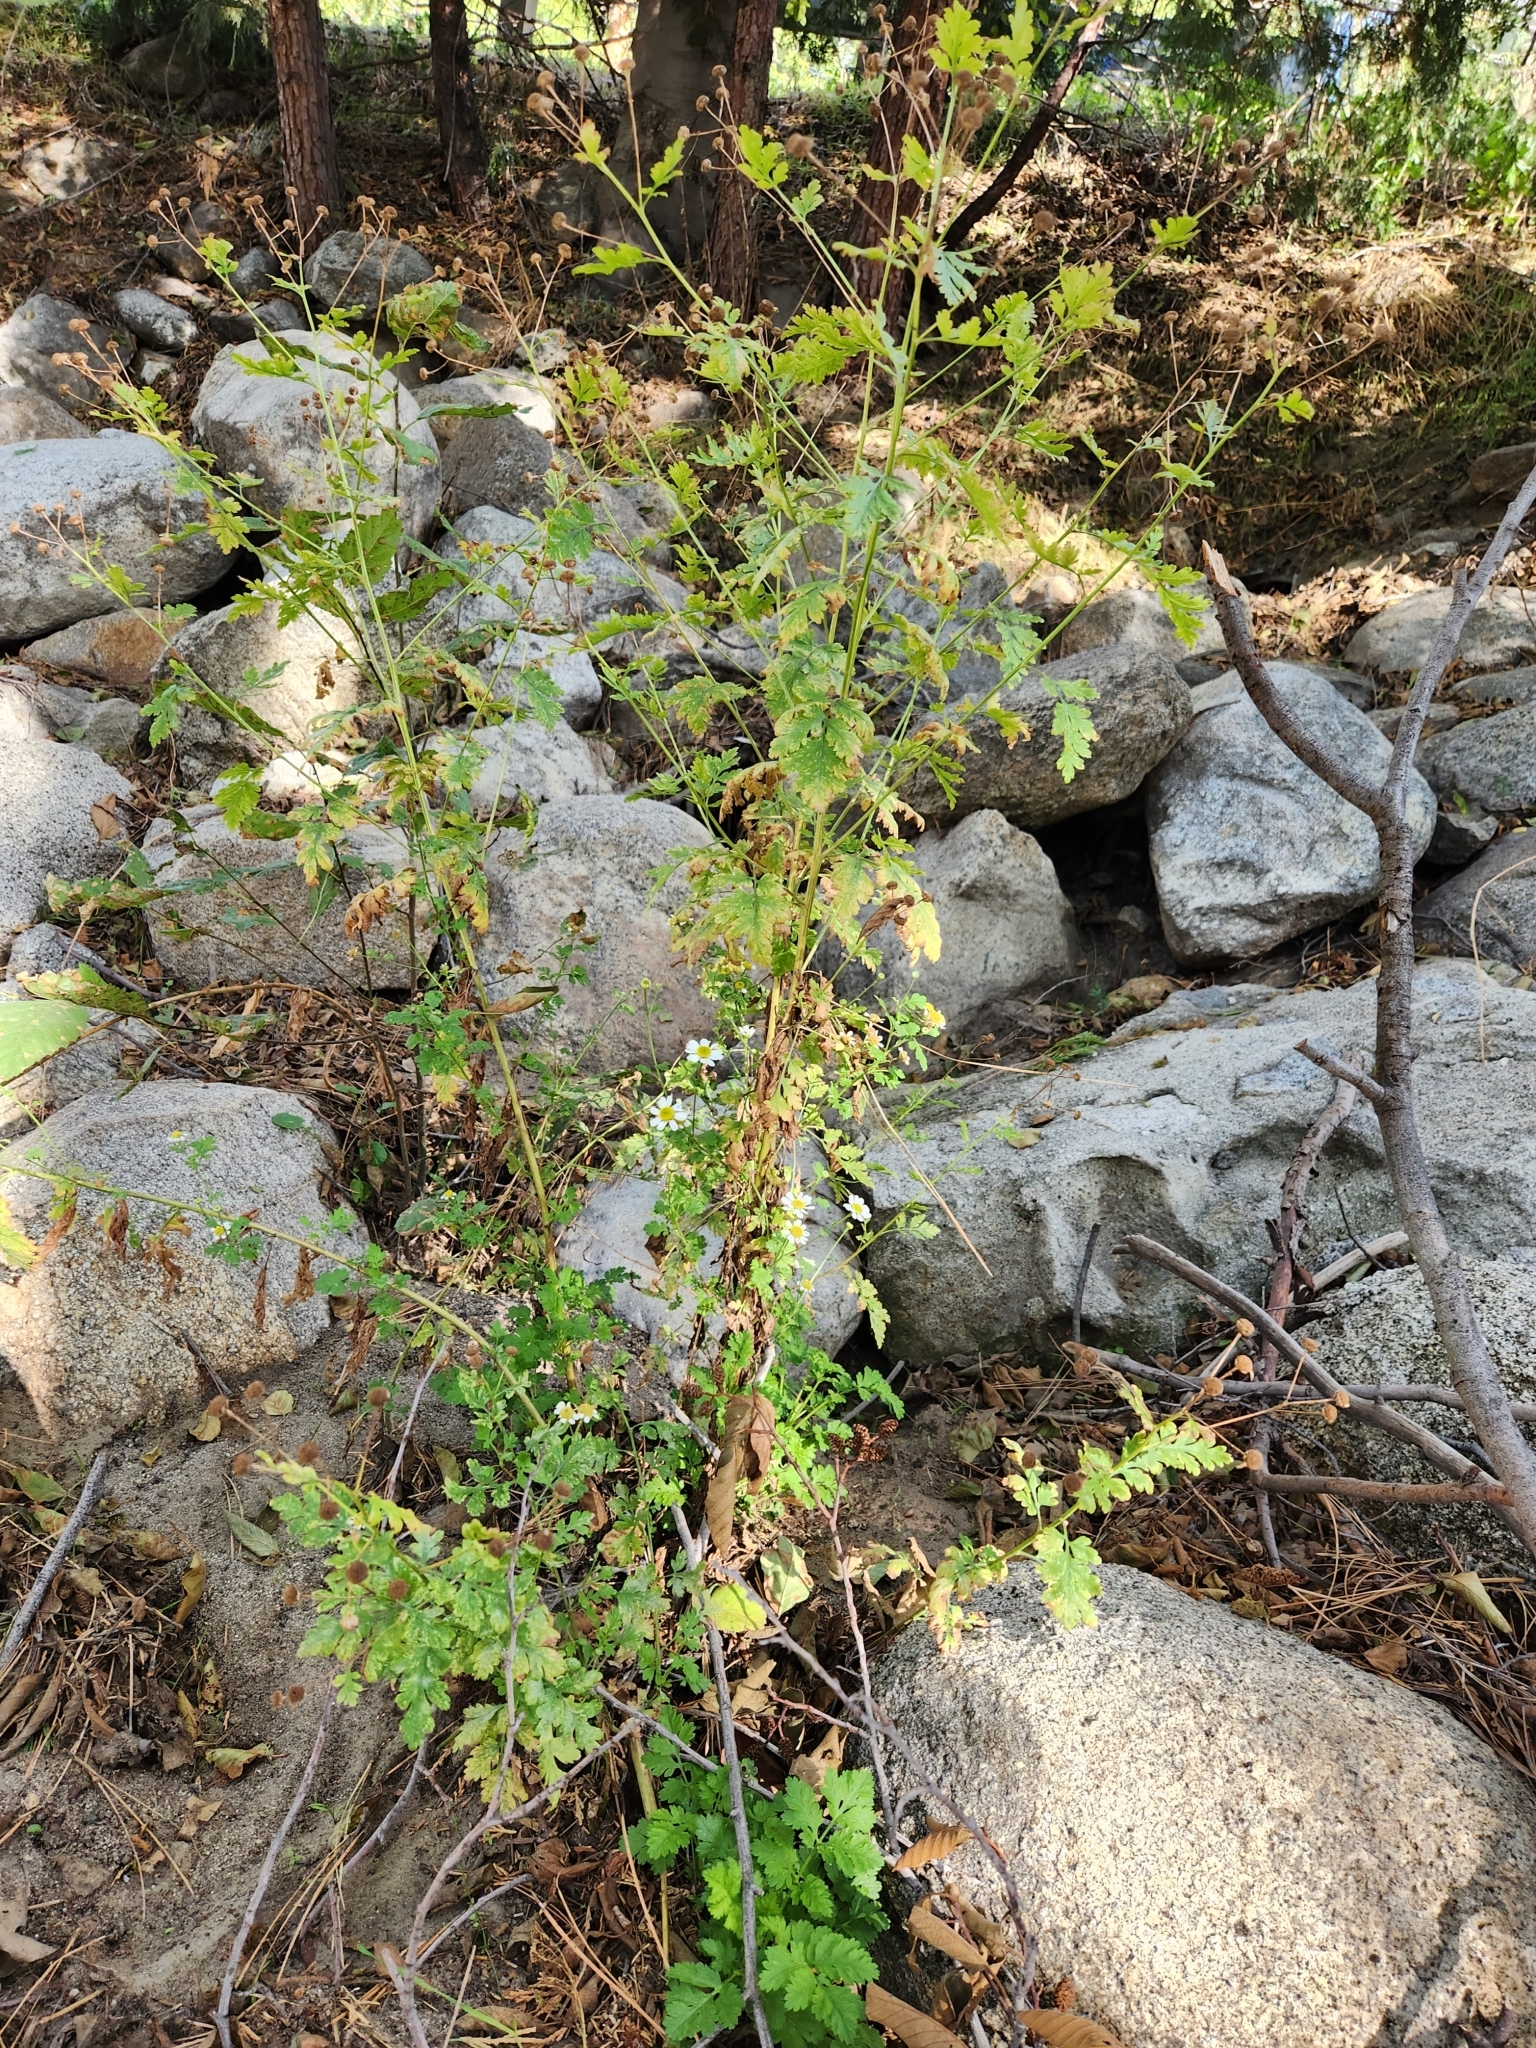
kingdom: Plantae
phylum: Tracheophyta
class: Magnoliopsida
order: Asterales
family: Asteraceae
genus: Tanacetum
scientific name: Tanacetum parthenium
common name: Feverfew
